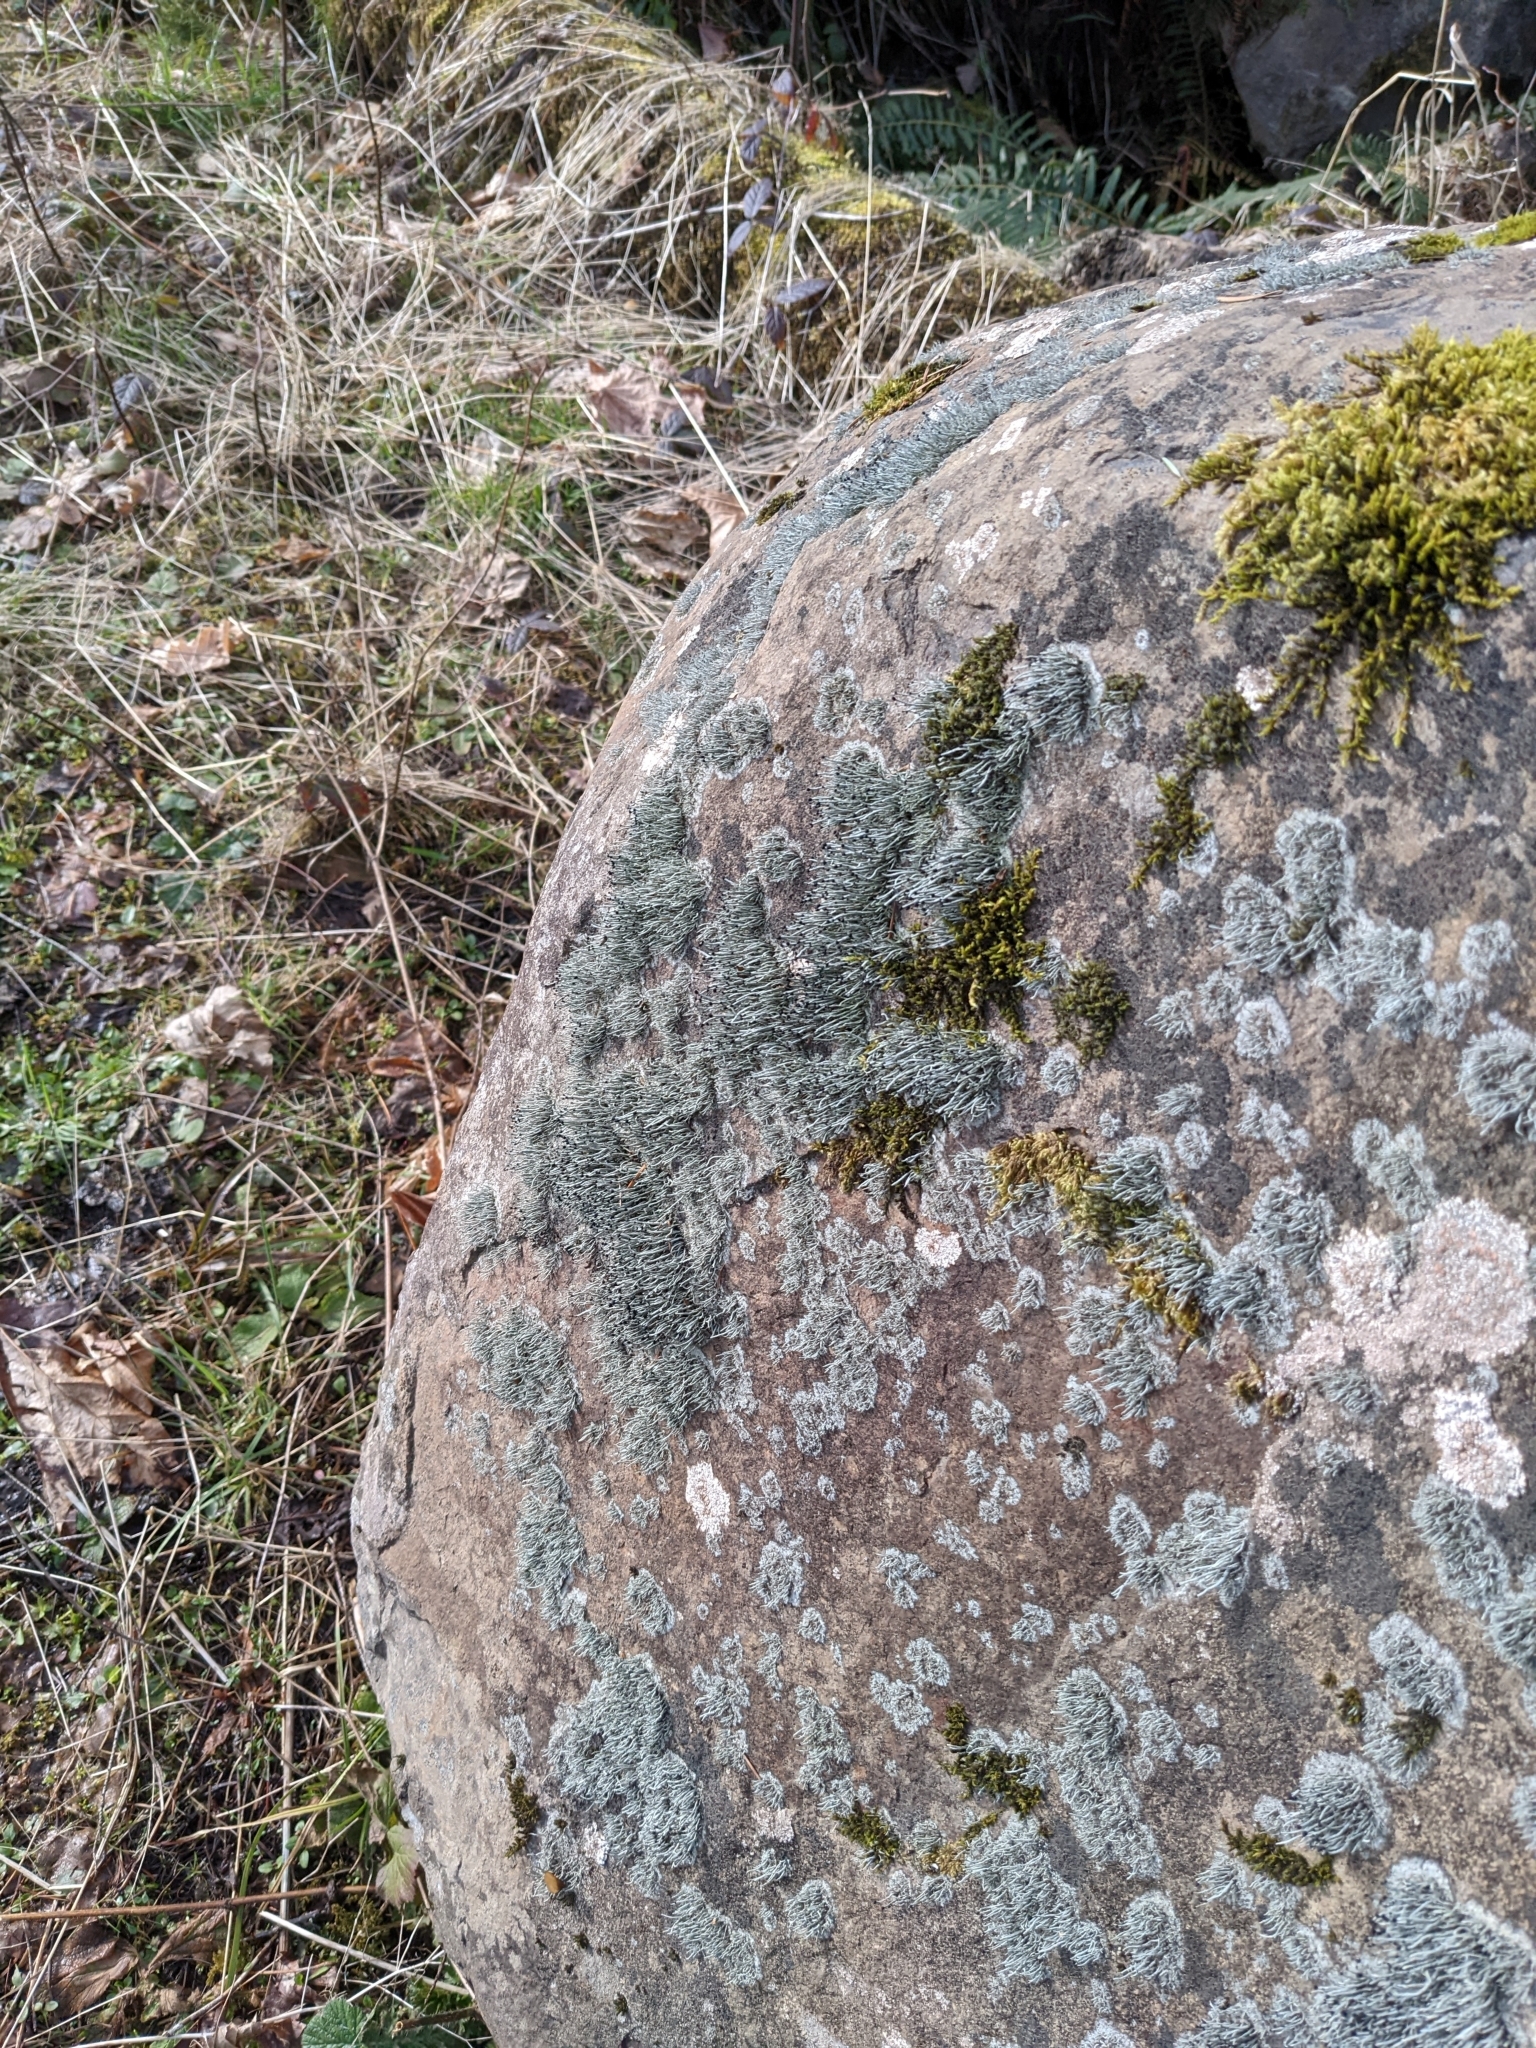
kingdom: Fungi
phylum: Ascomycota
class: Lecanoromycetes
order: Lecanorales
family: Cladoniaceae
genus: Pilophorus
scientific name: Pilophorus acicularis
